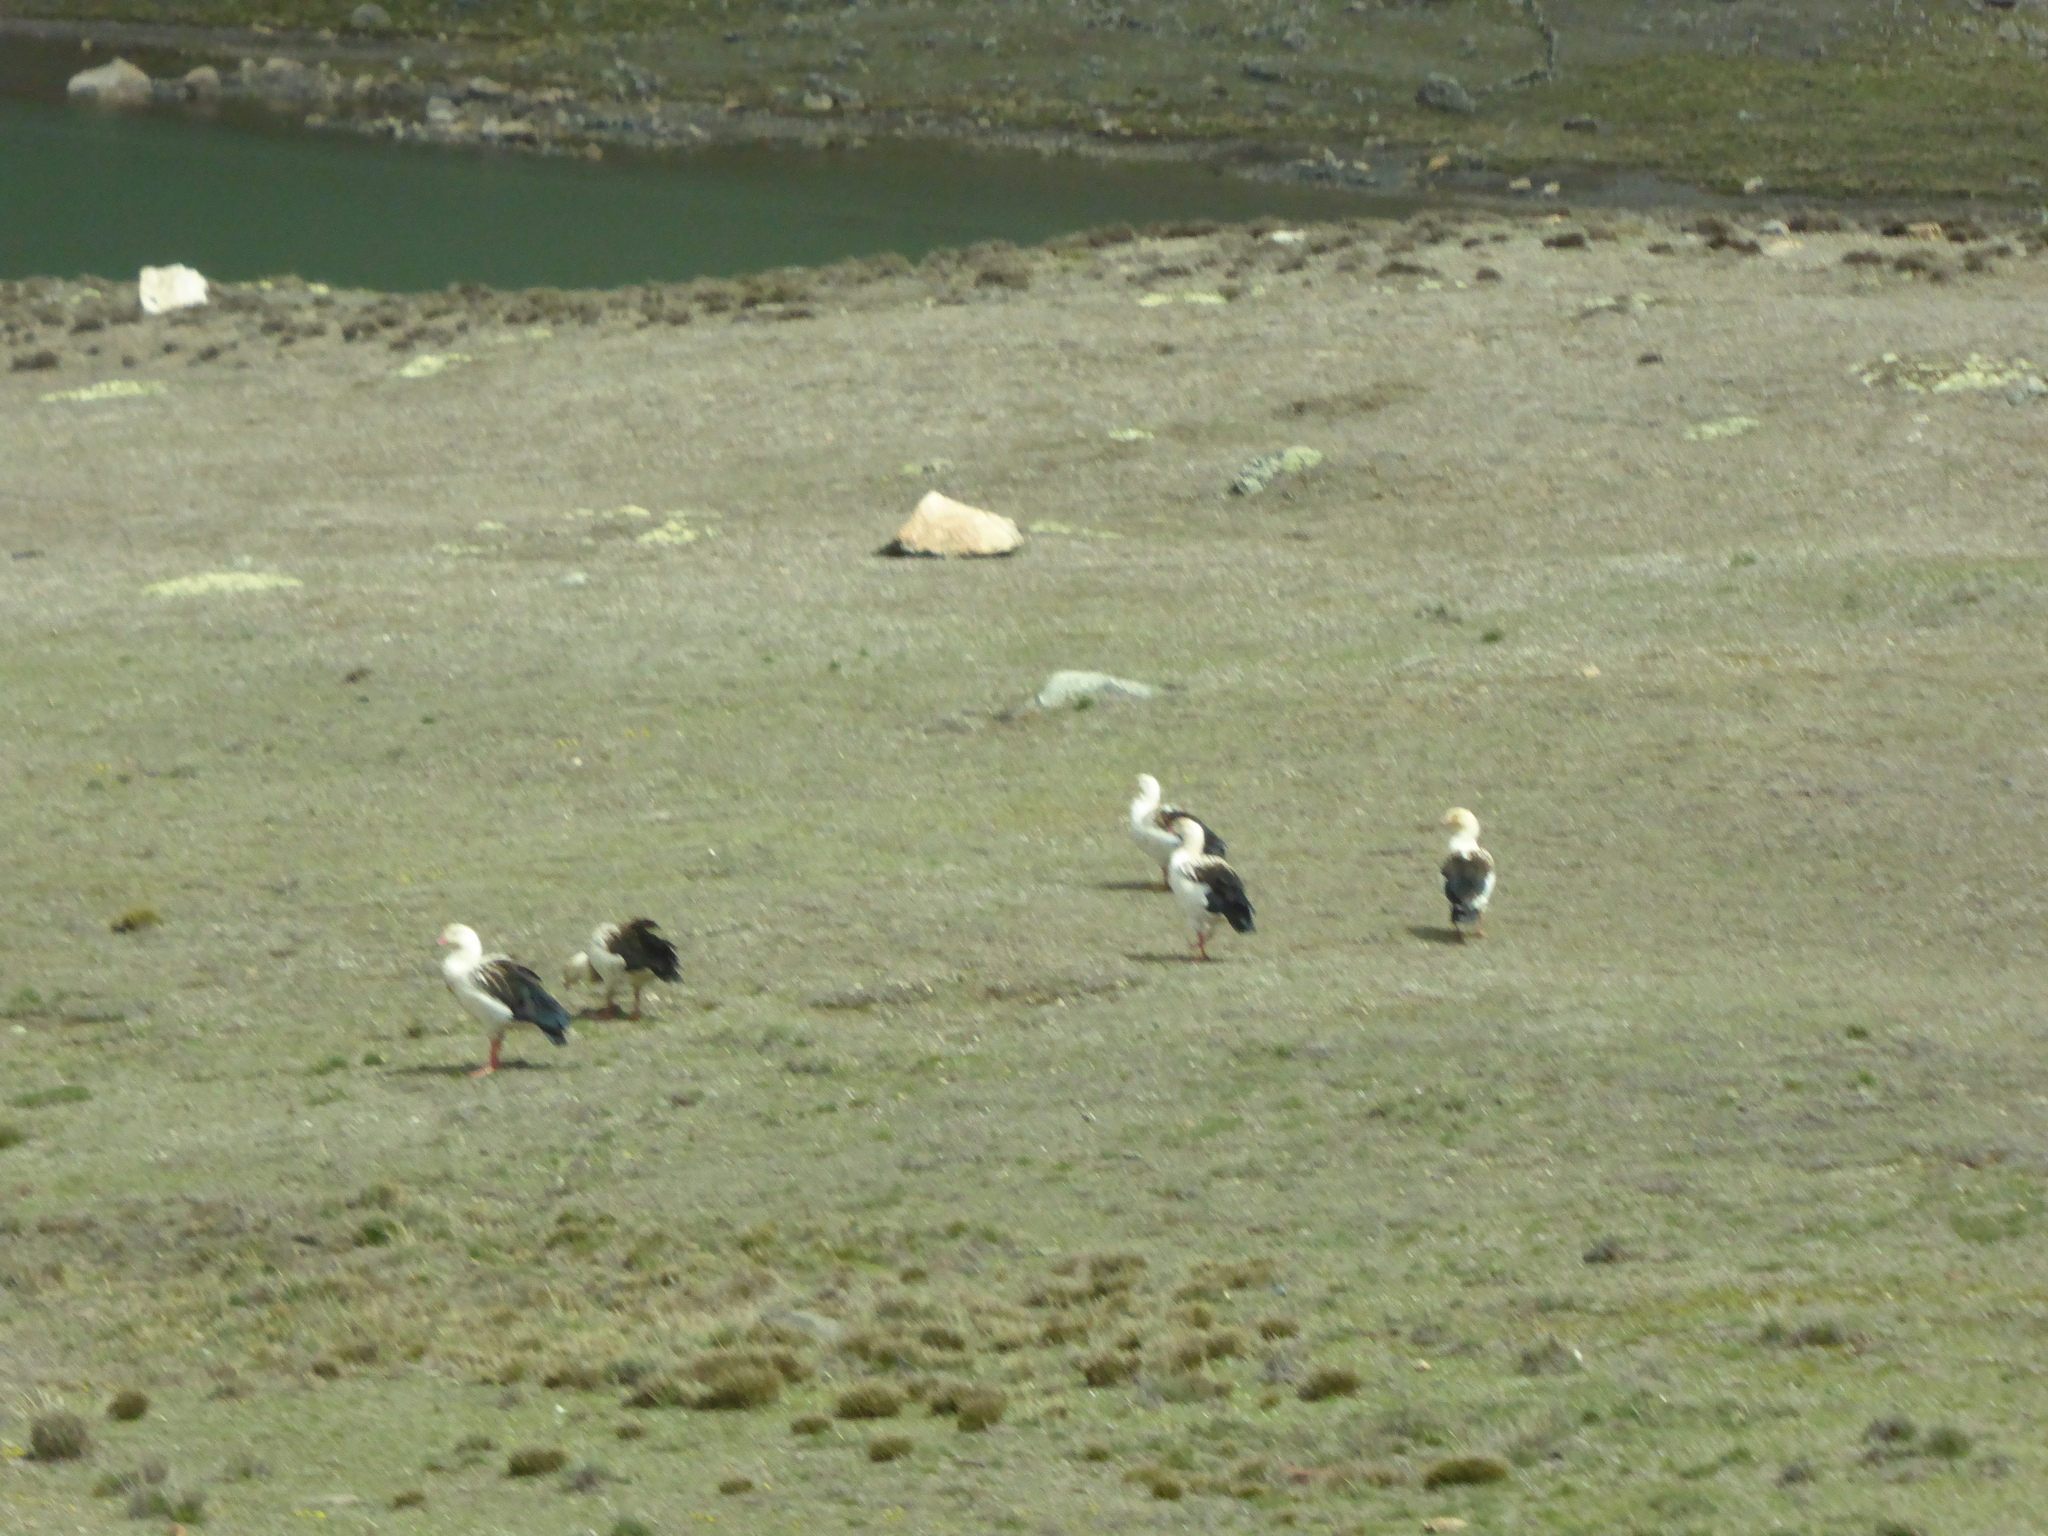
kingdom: Animalia
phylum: Chordata
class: Aves
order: Anseriformes
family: Anatidae
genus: Chloephaga
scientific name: Chloephaga melanoptera
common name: Andean goose
